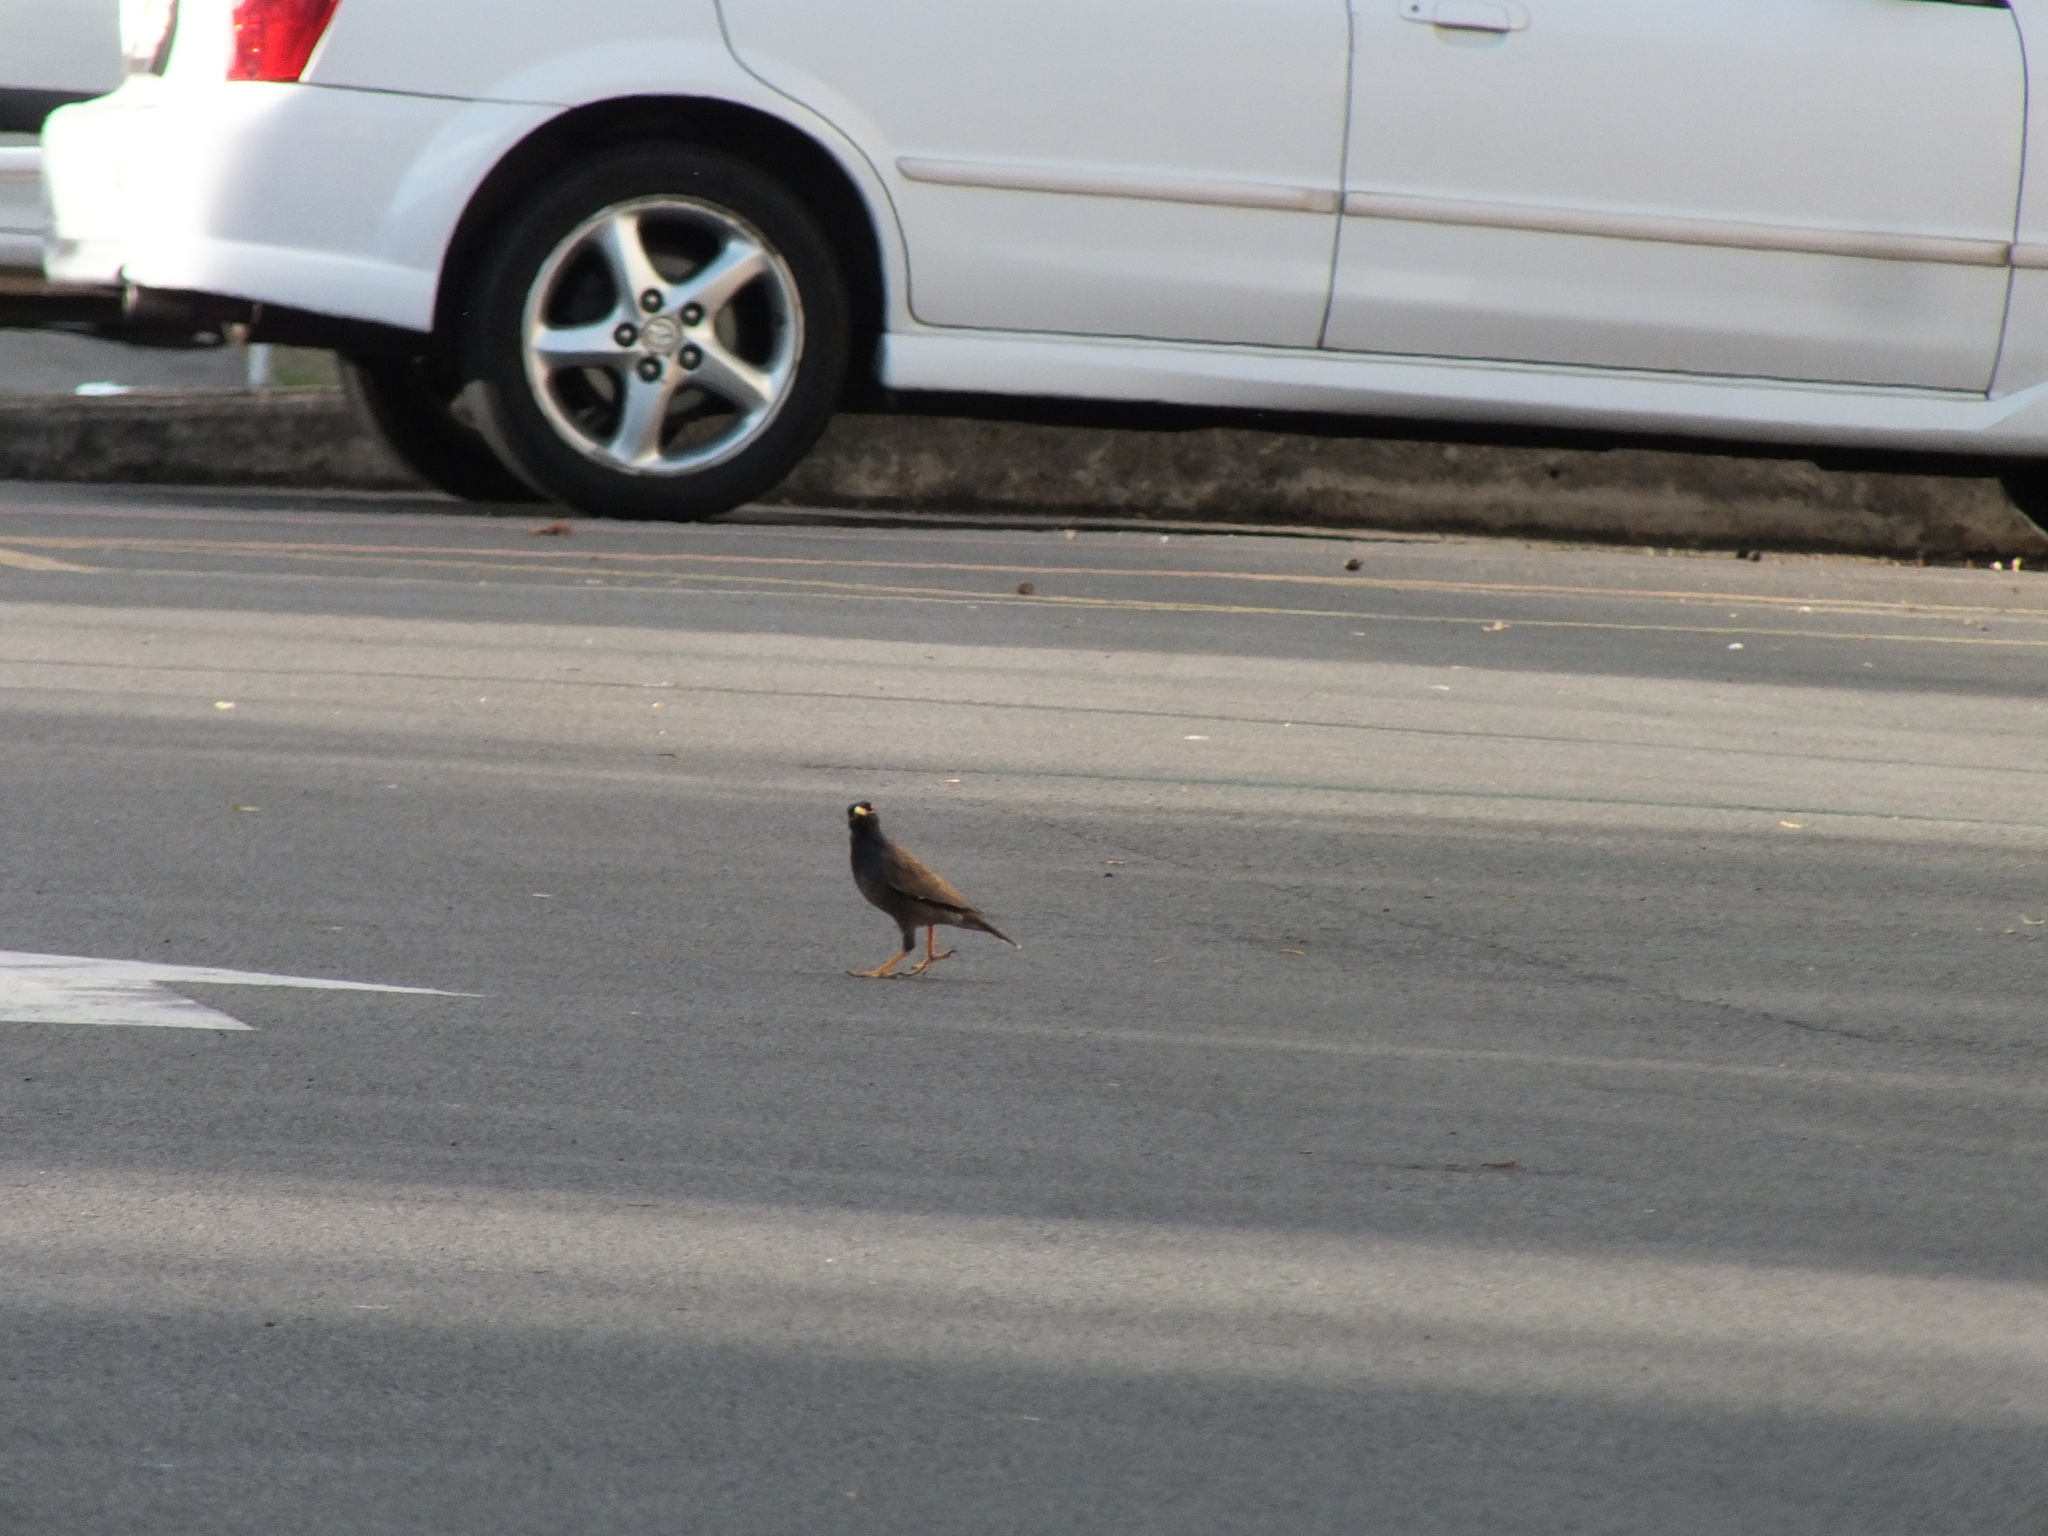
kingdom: Animalia
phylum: Chordata
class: Aves
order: Passeriformes
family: Sturnidae
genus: Acridotheres
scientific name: Acridotheres tristis
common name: Common myna
